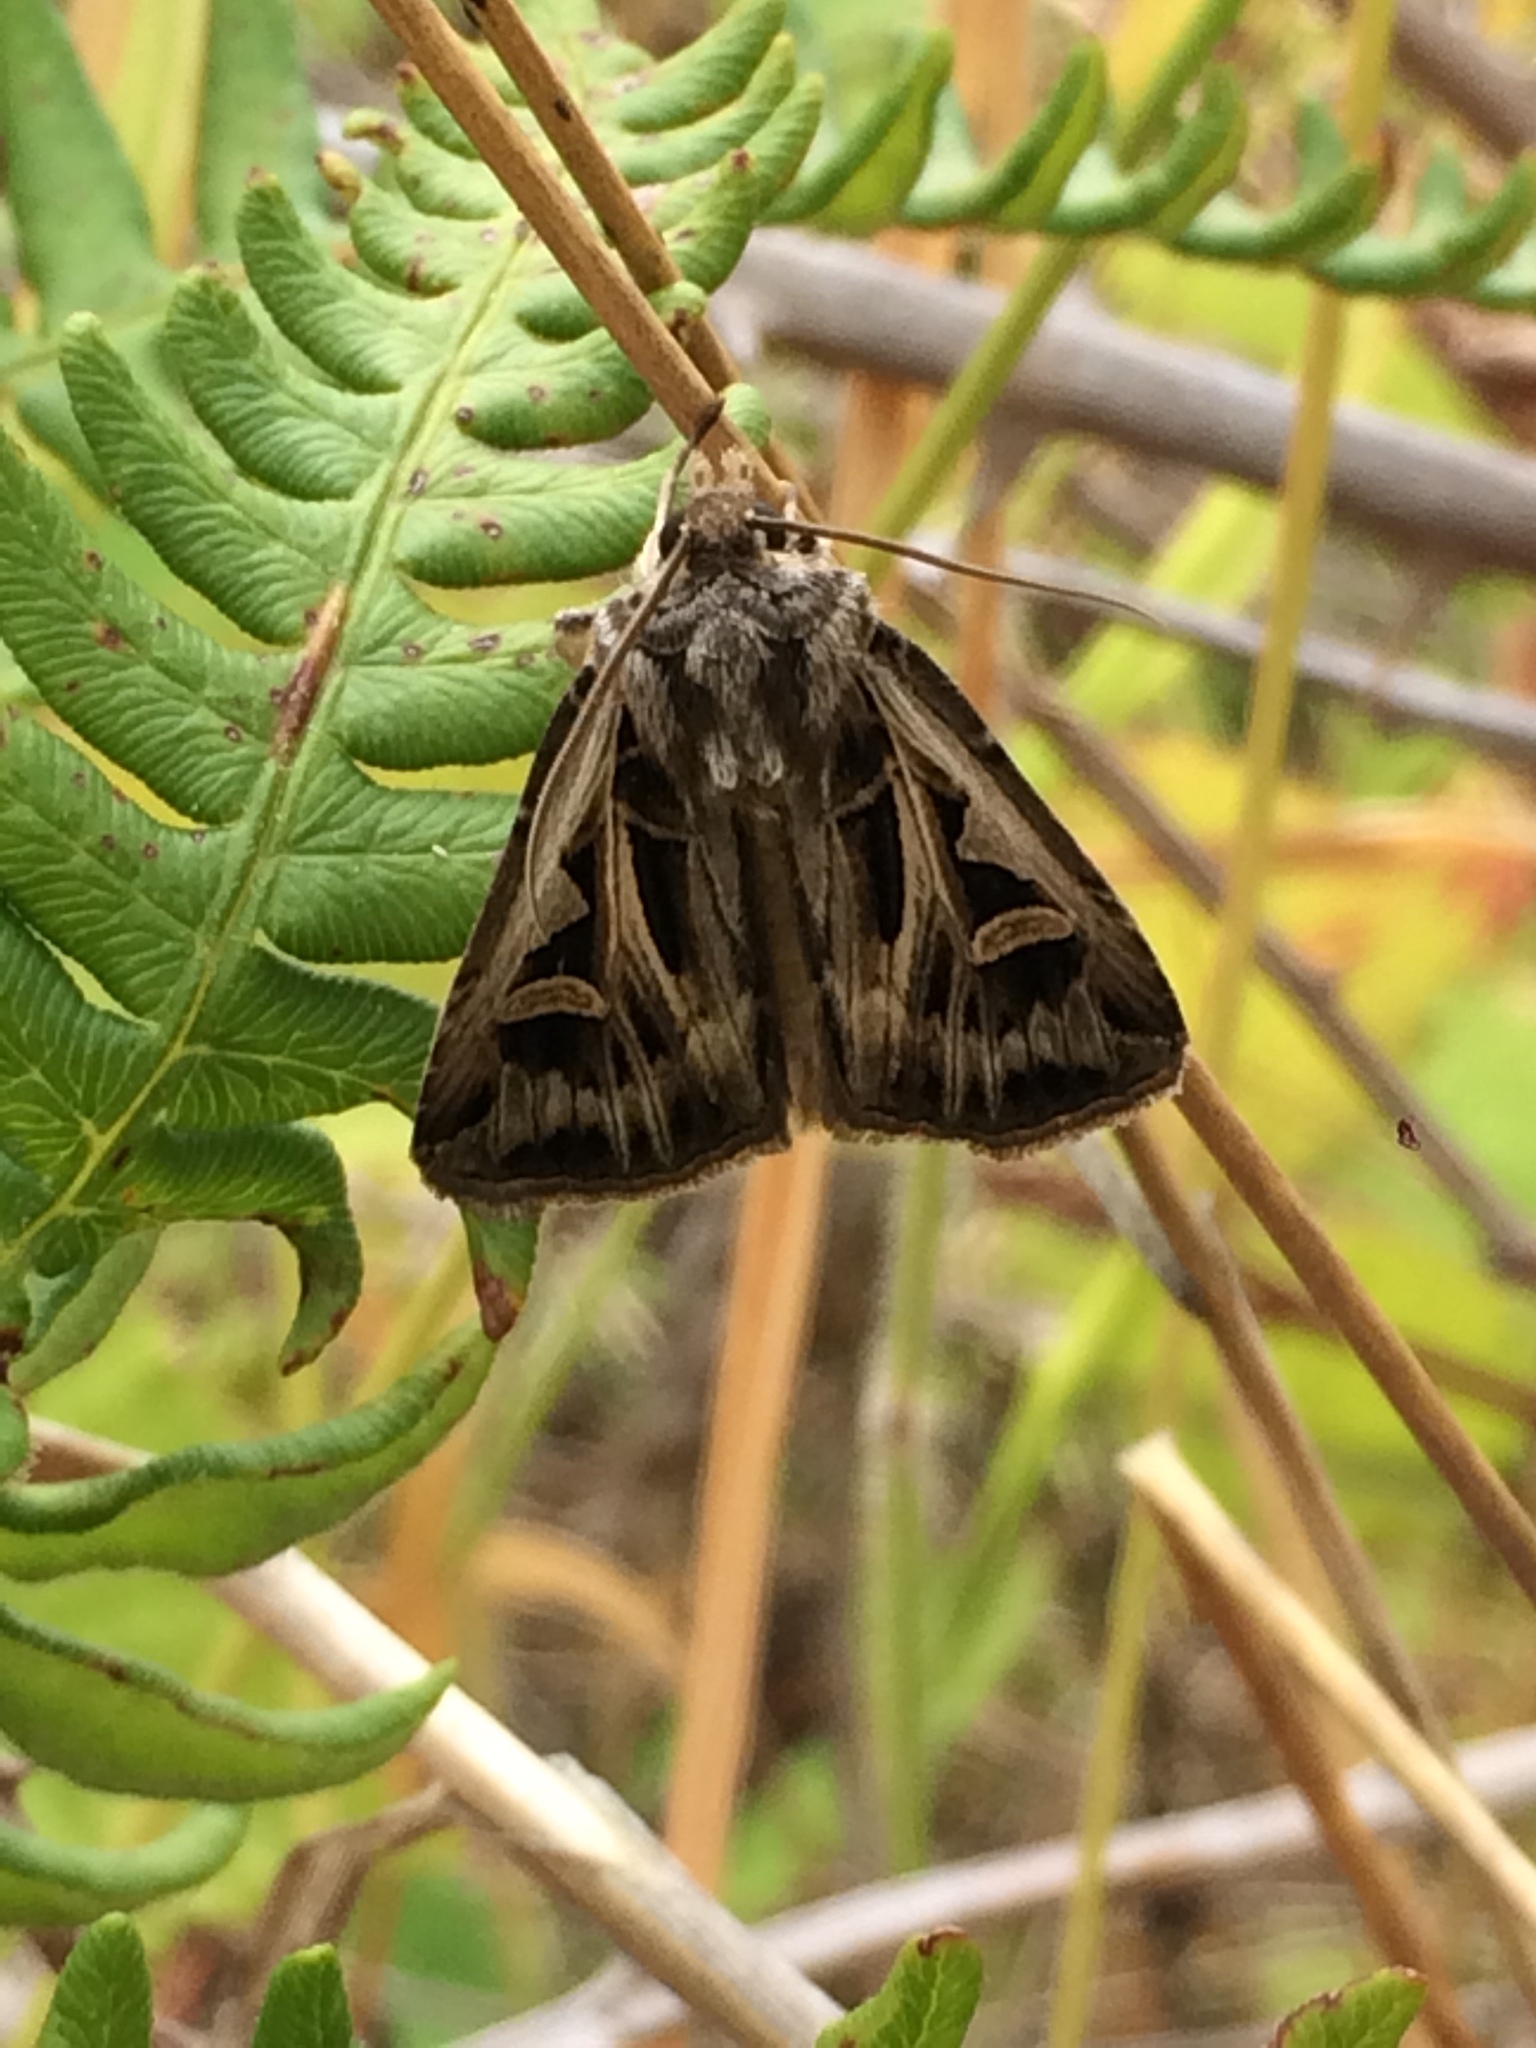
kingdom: Animalia
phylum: Arthropoda
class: Insecta
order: Lepidoptera
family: Noctuidae
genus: Feltia
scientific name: Feltia jaculifera
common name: Dingy cutworm moth
